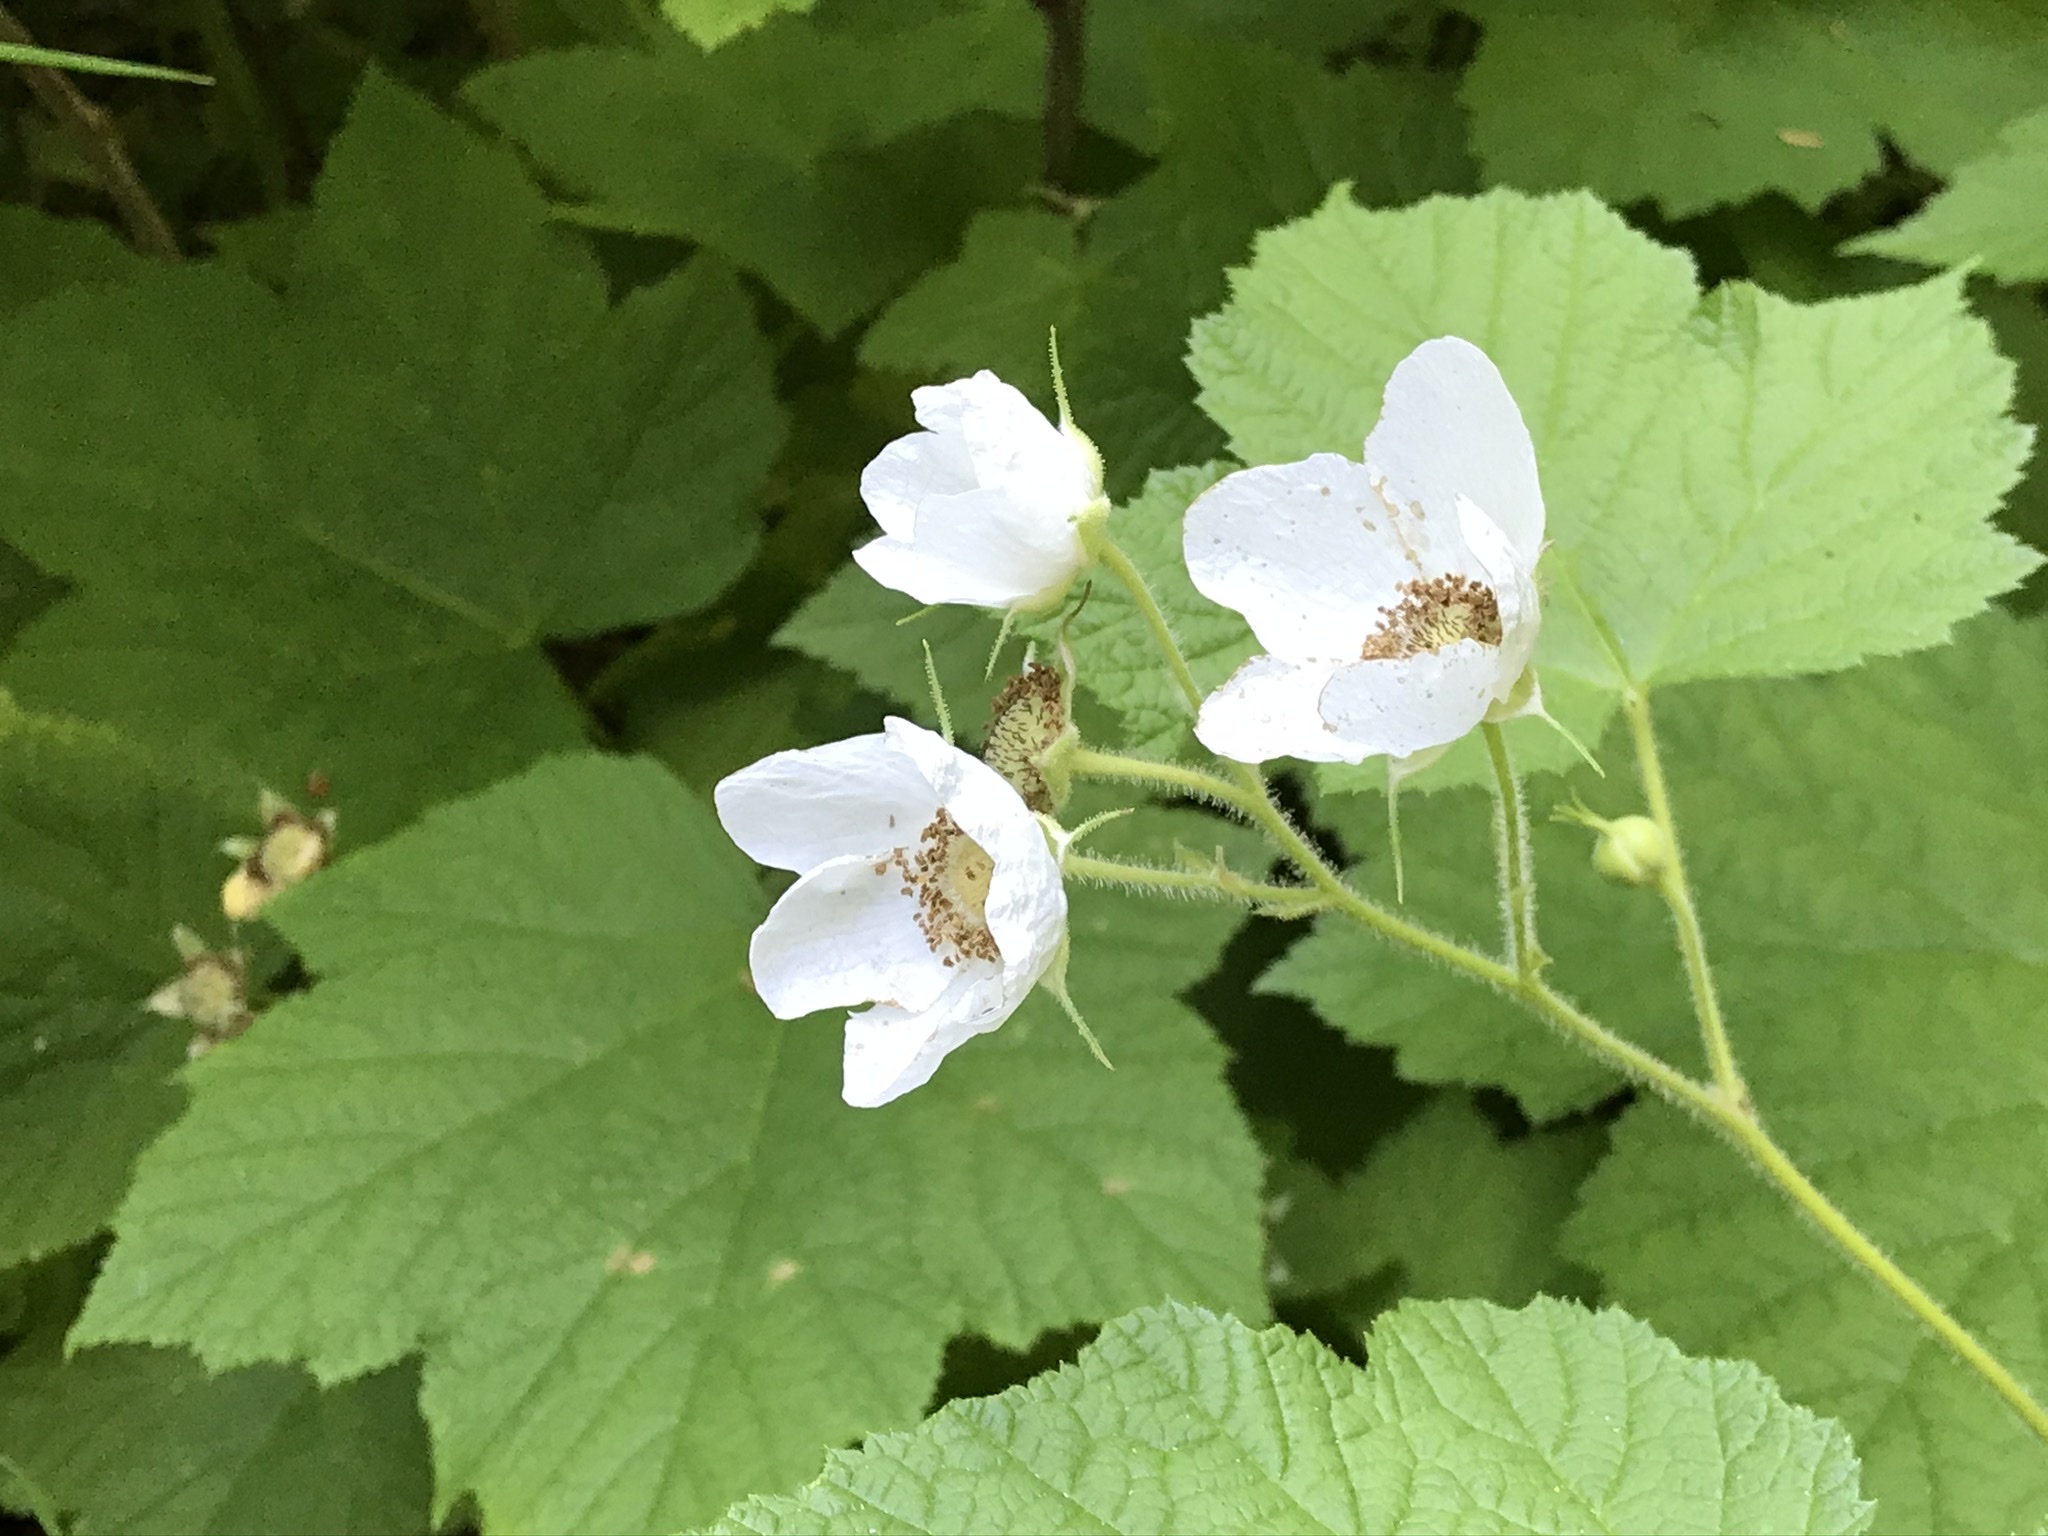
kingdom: Plantae
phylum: Tracheophyta
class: Magnoliopsida
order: Rosales
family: Rosaceae
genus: Rubus
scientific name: Rubus parviflorus
